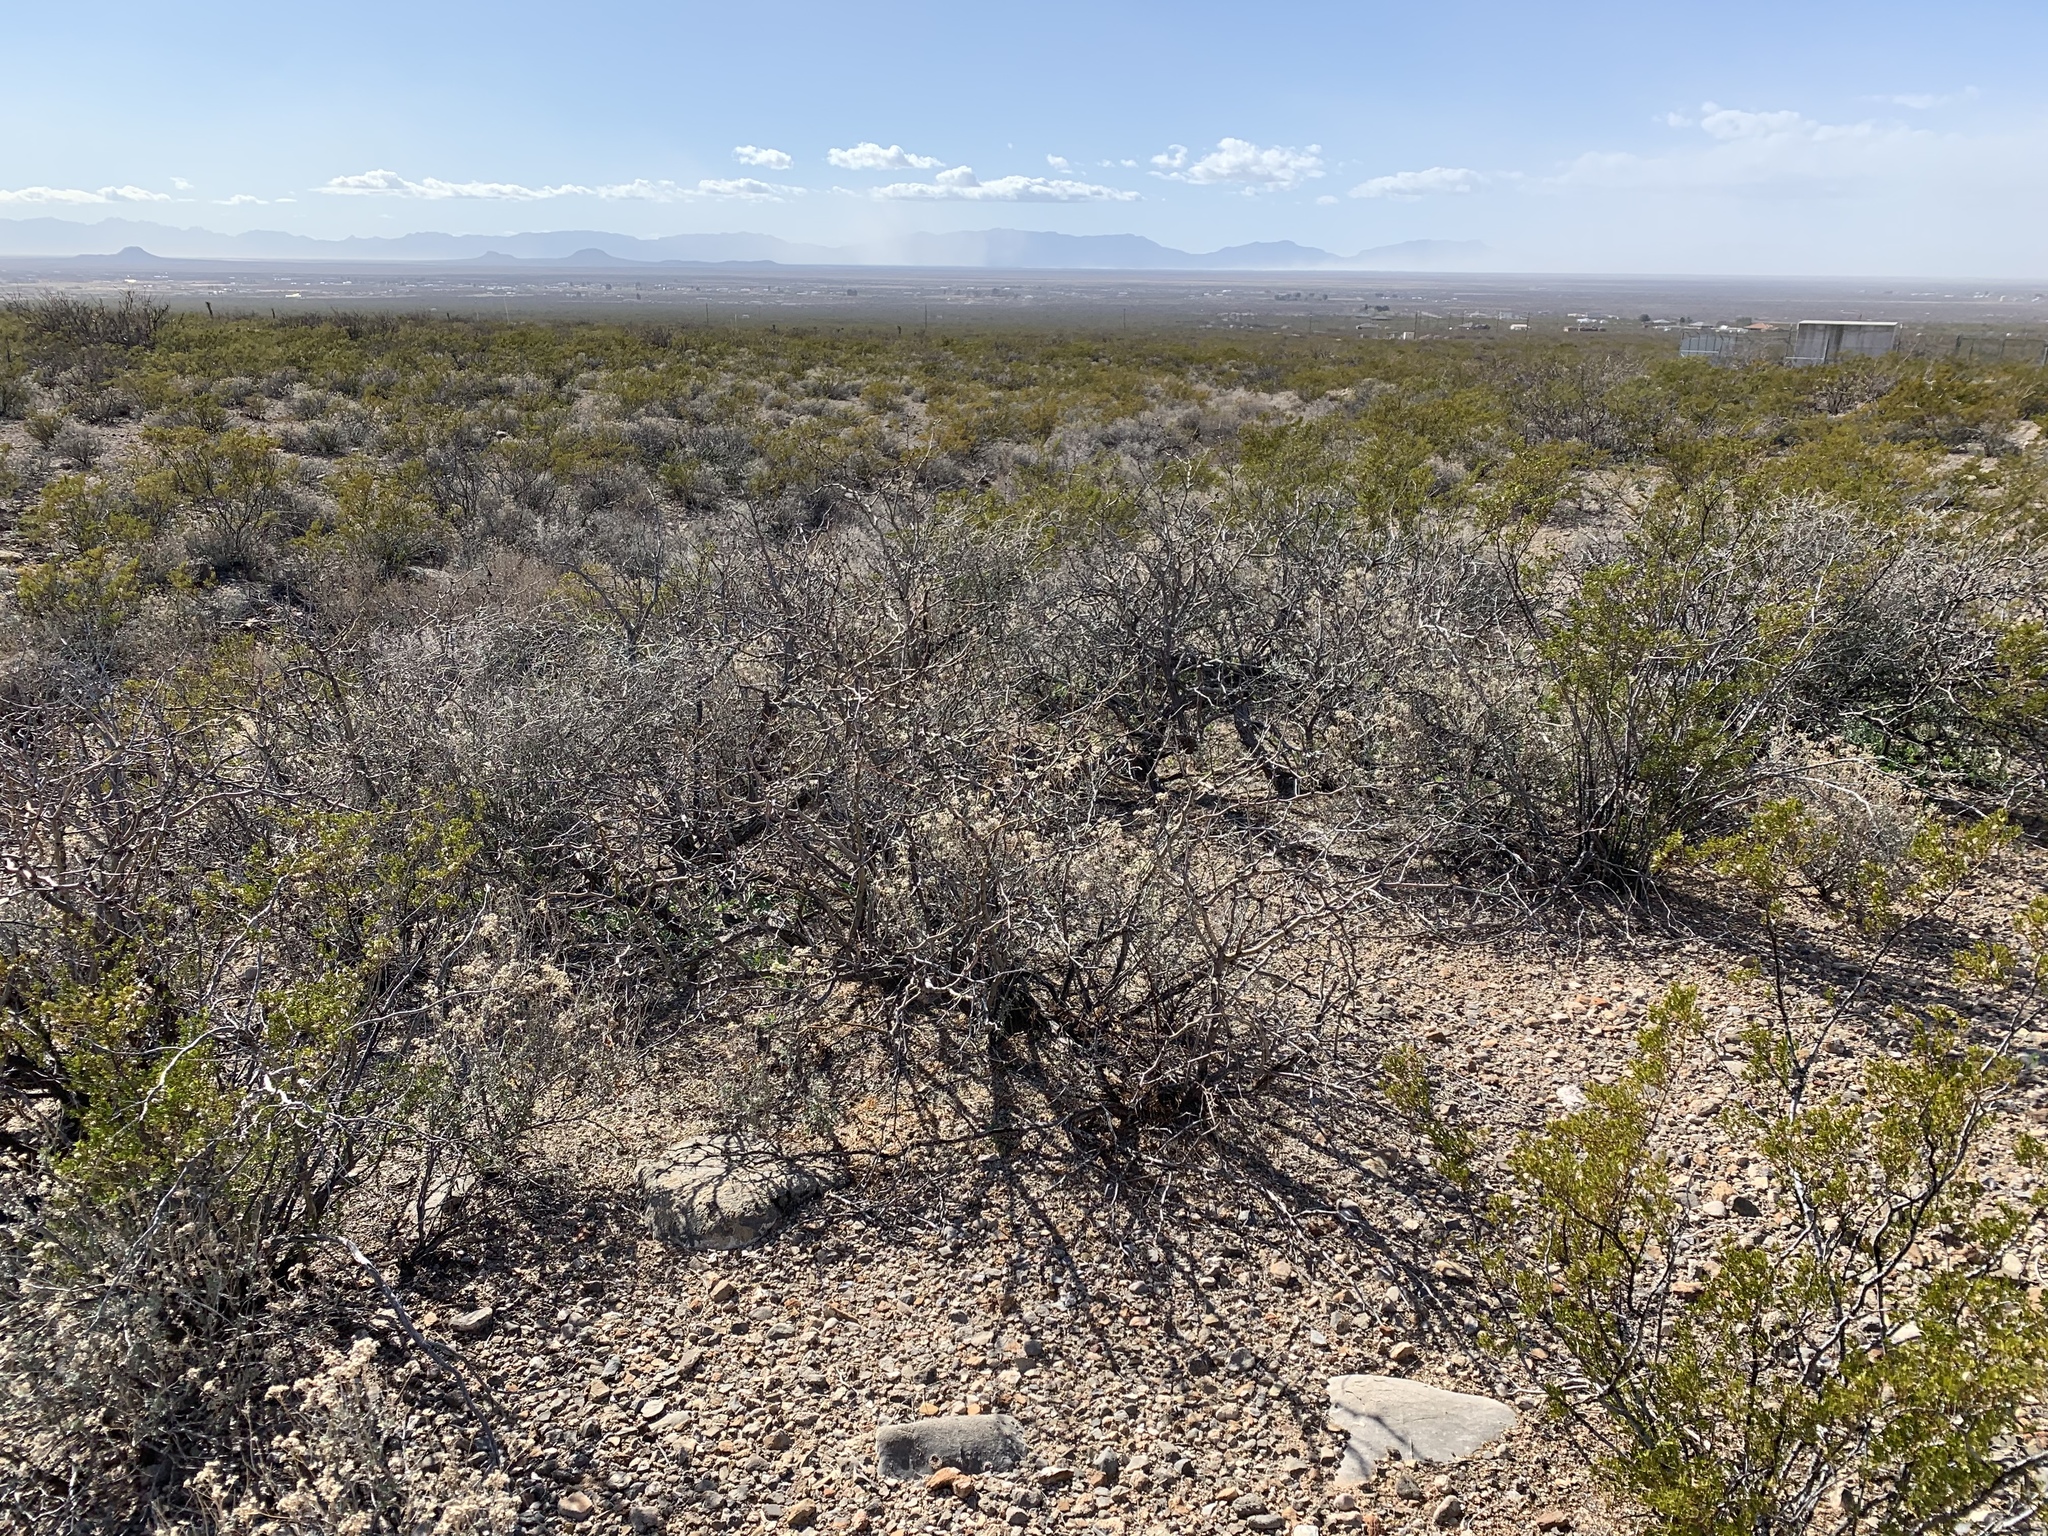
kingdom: Plantae
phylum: Tracheophyta
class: Magnoliopsida
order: Fabales
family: Fabaceae
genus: Prosopis
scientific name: Prosopis glandulosa
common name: Honey mesquite
